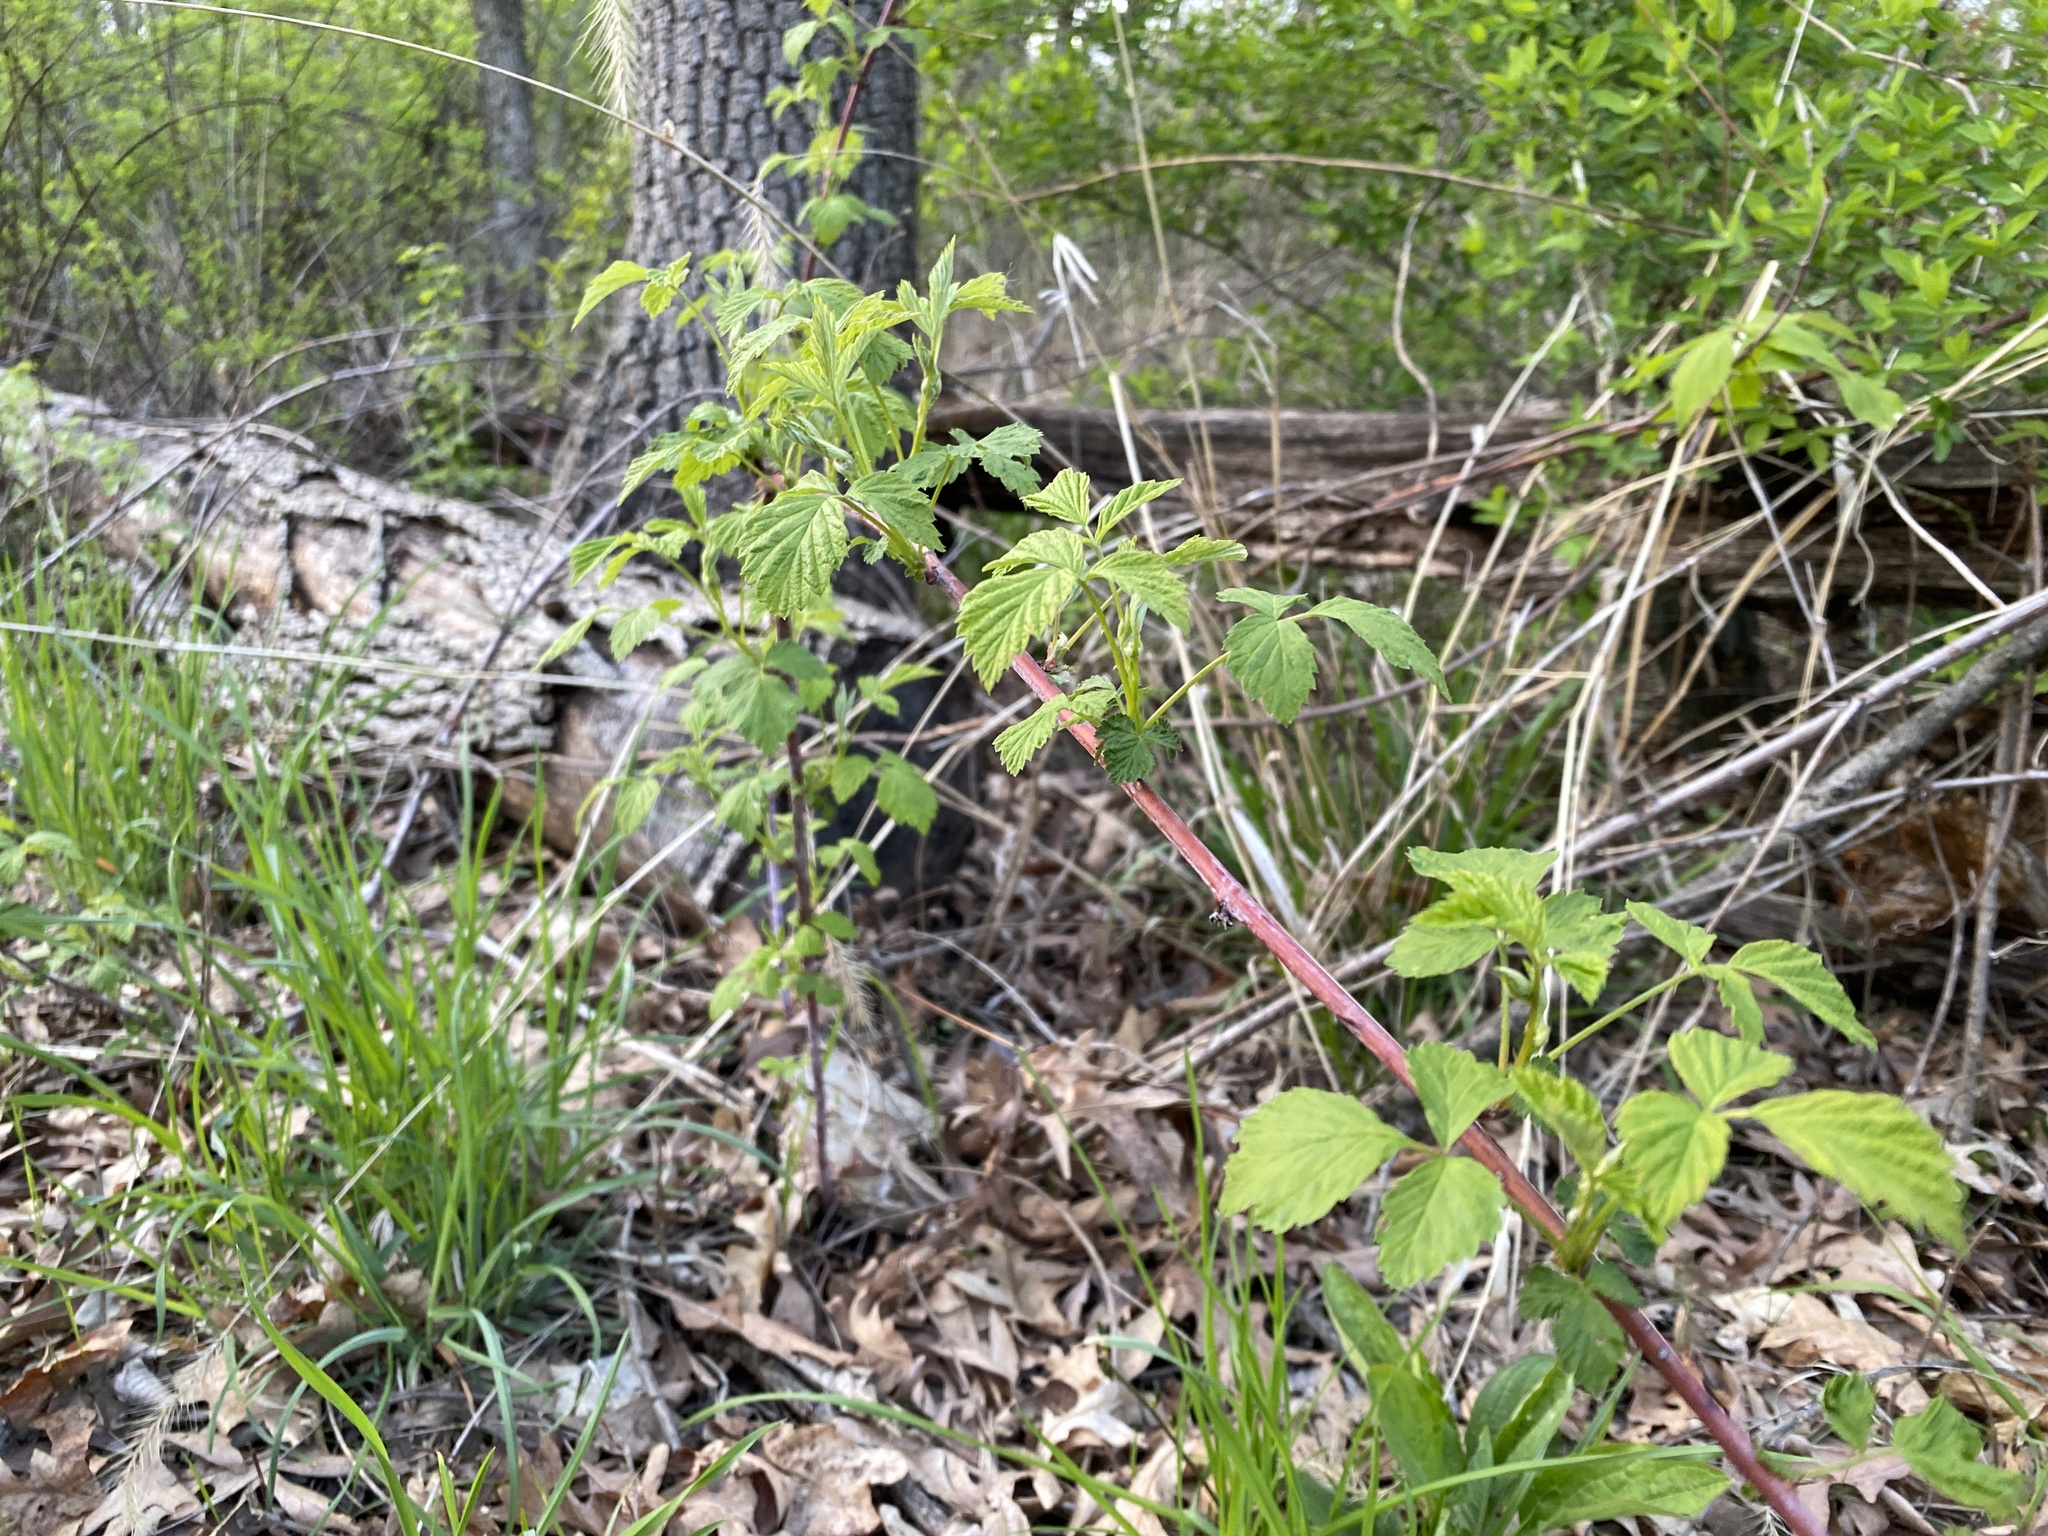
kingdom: Plantae
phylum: Tracheophyta
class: Magnoliopsida
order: Rosales
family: Rosaceae
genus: Rubus
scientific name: Rubus occidentalis
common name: Black raspberry
